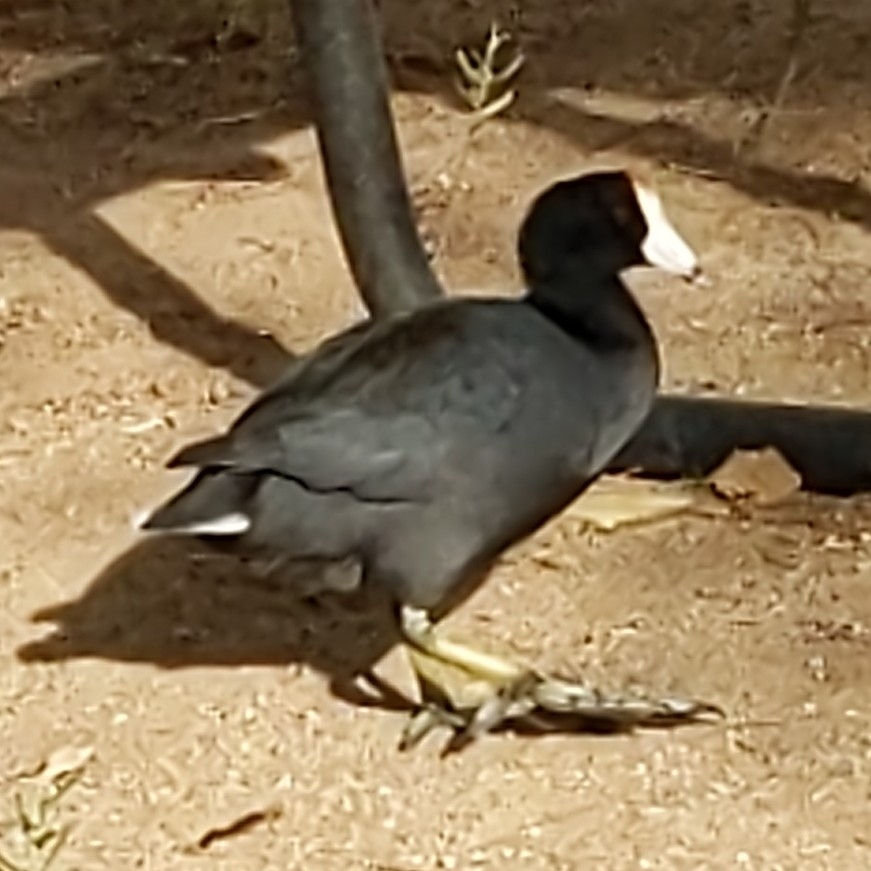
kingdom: Animalia
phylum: Chordata
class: Aves
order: Gruiformes
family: Rallidae
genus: Fulica
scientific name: Fulica americana
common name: American coot
